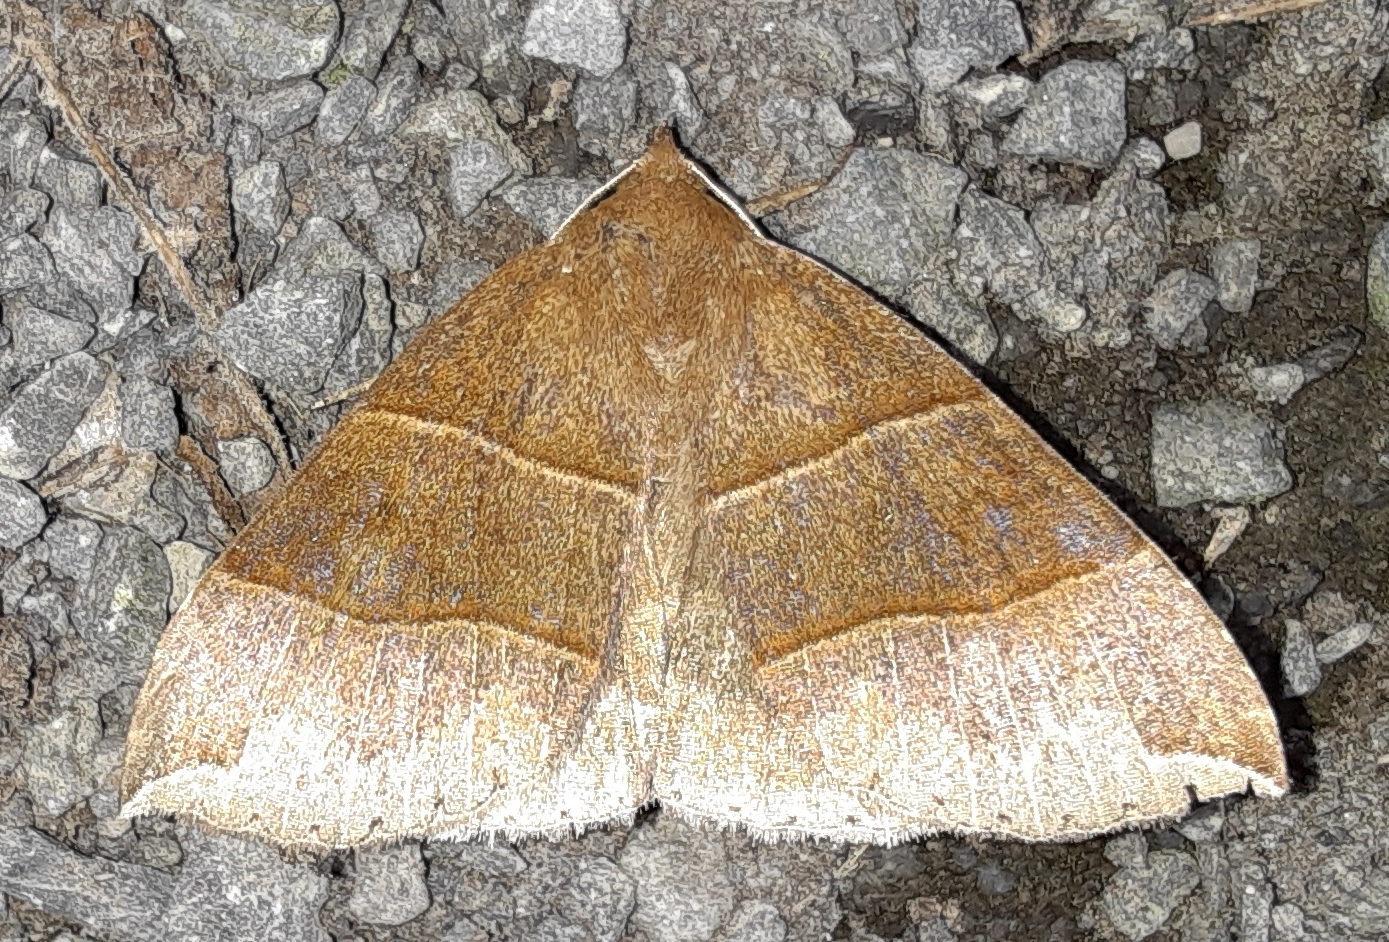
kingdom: Animalia
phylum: Arthropoda
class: Insecta
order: Lepidoptera
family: Erebidae
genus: Parallelia
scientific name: Parallelia bistriaris
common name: Maple looper moth
